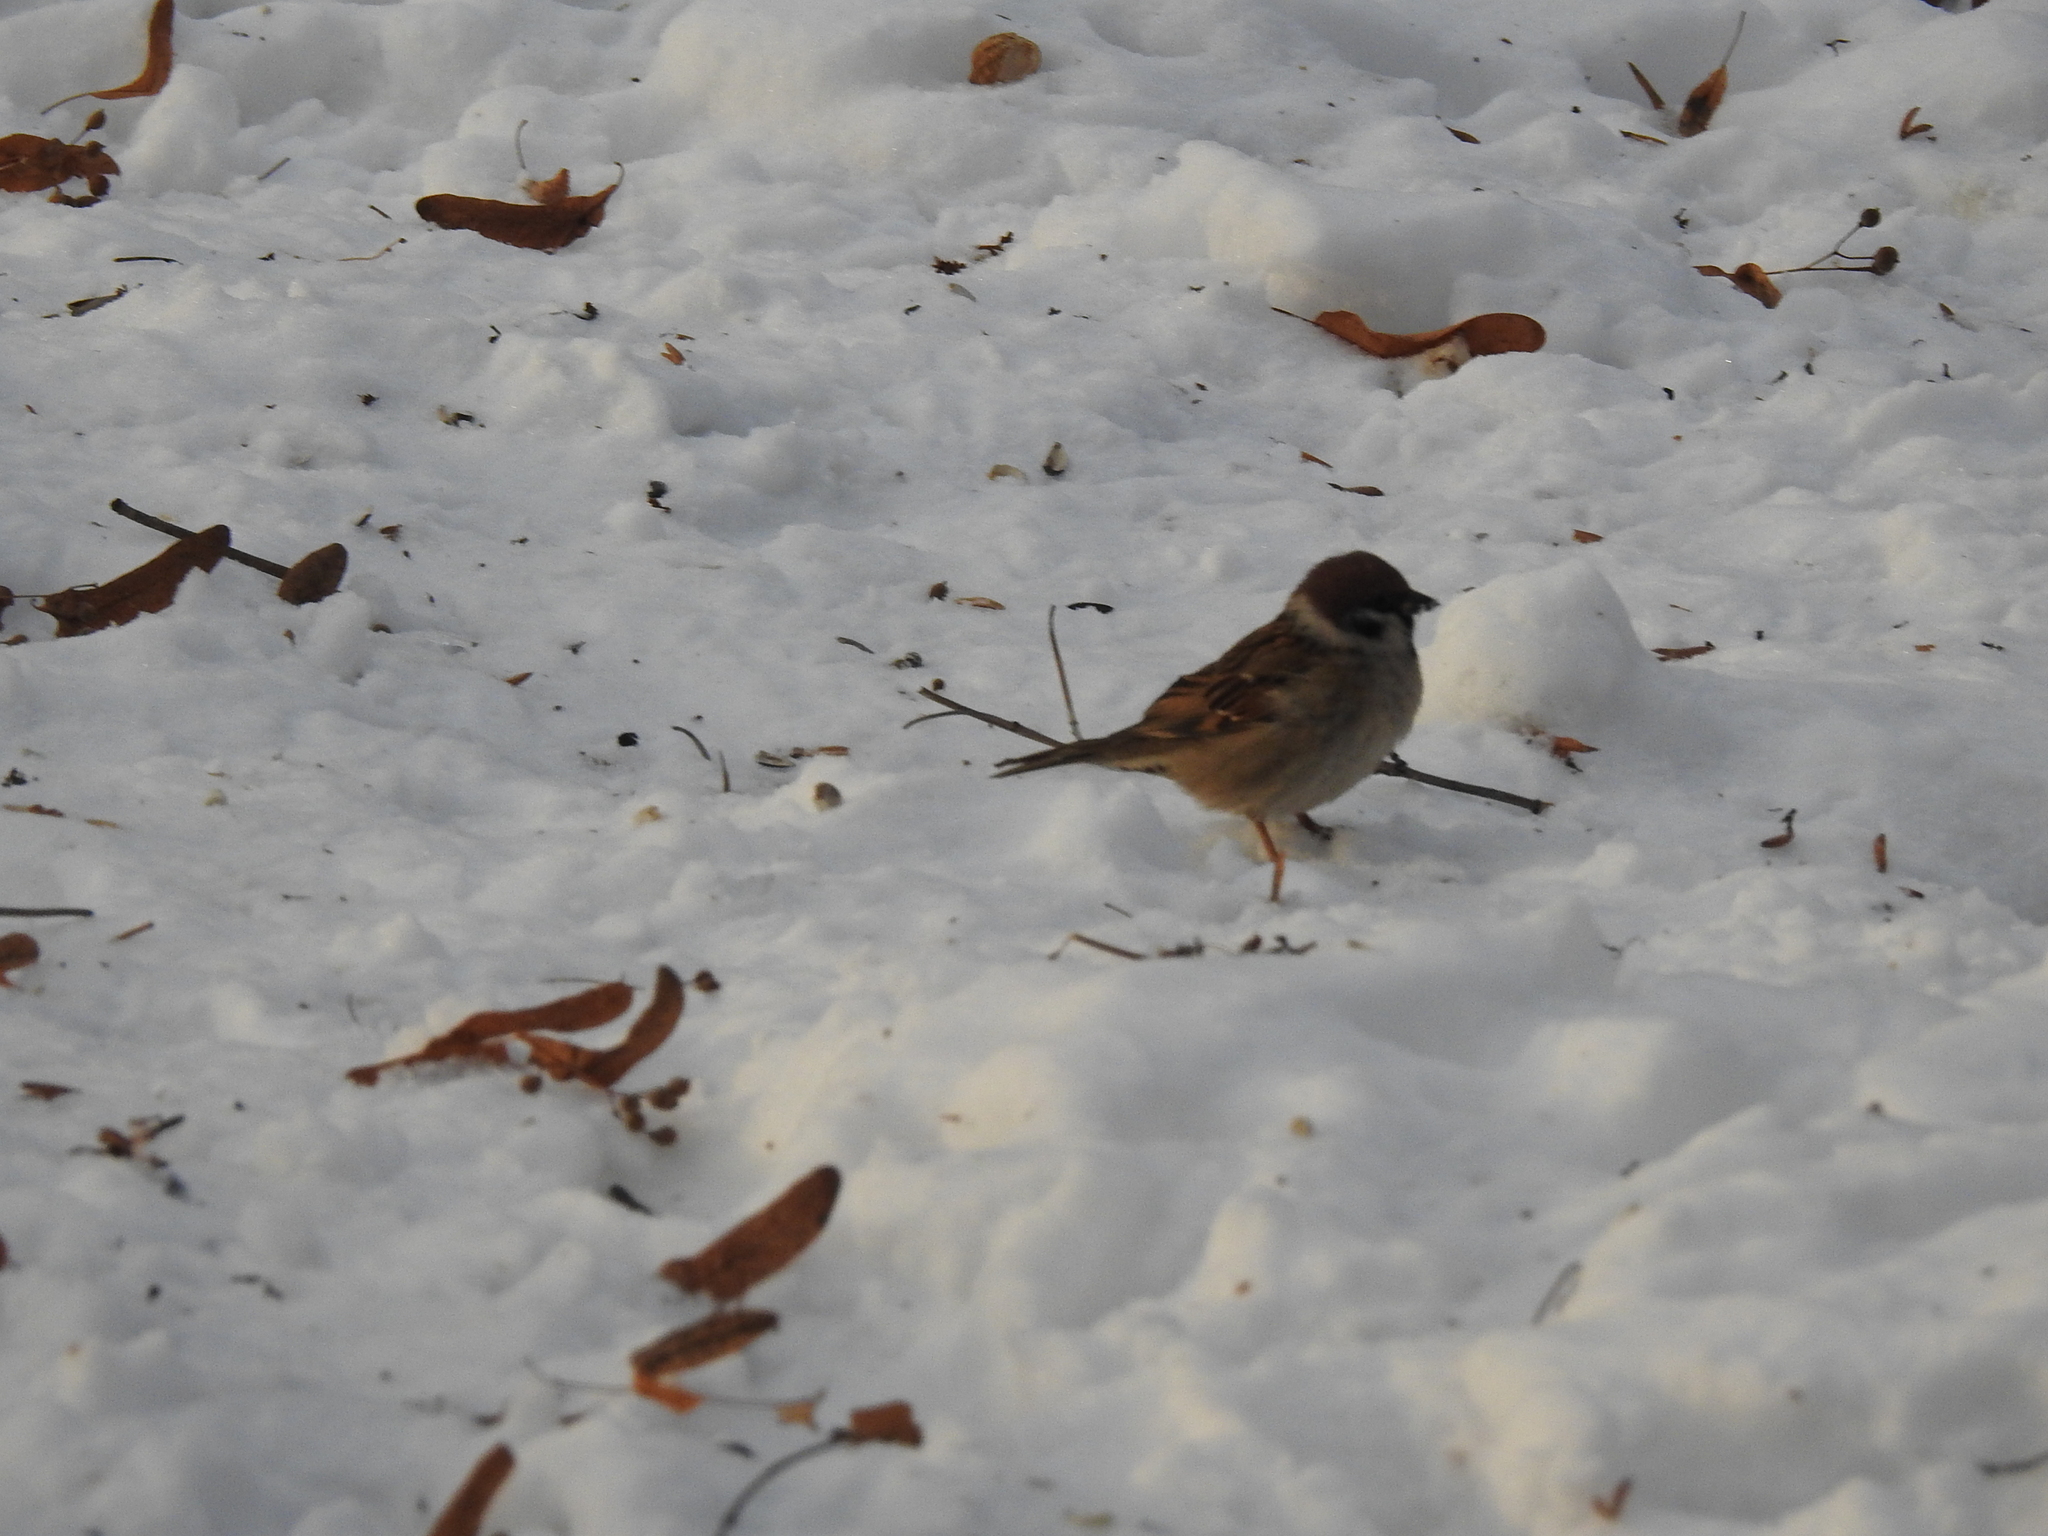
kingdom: Animalia
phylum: Chordata
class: Aves
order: Passeriformes
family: Passeridae
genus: Passer
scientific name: Passer montanus
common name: Eurasian tree sparrow
